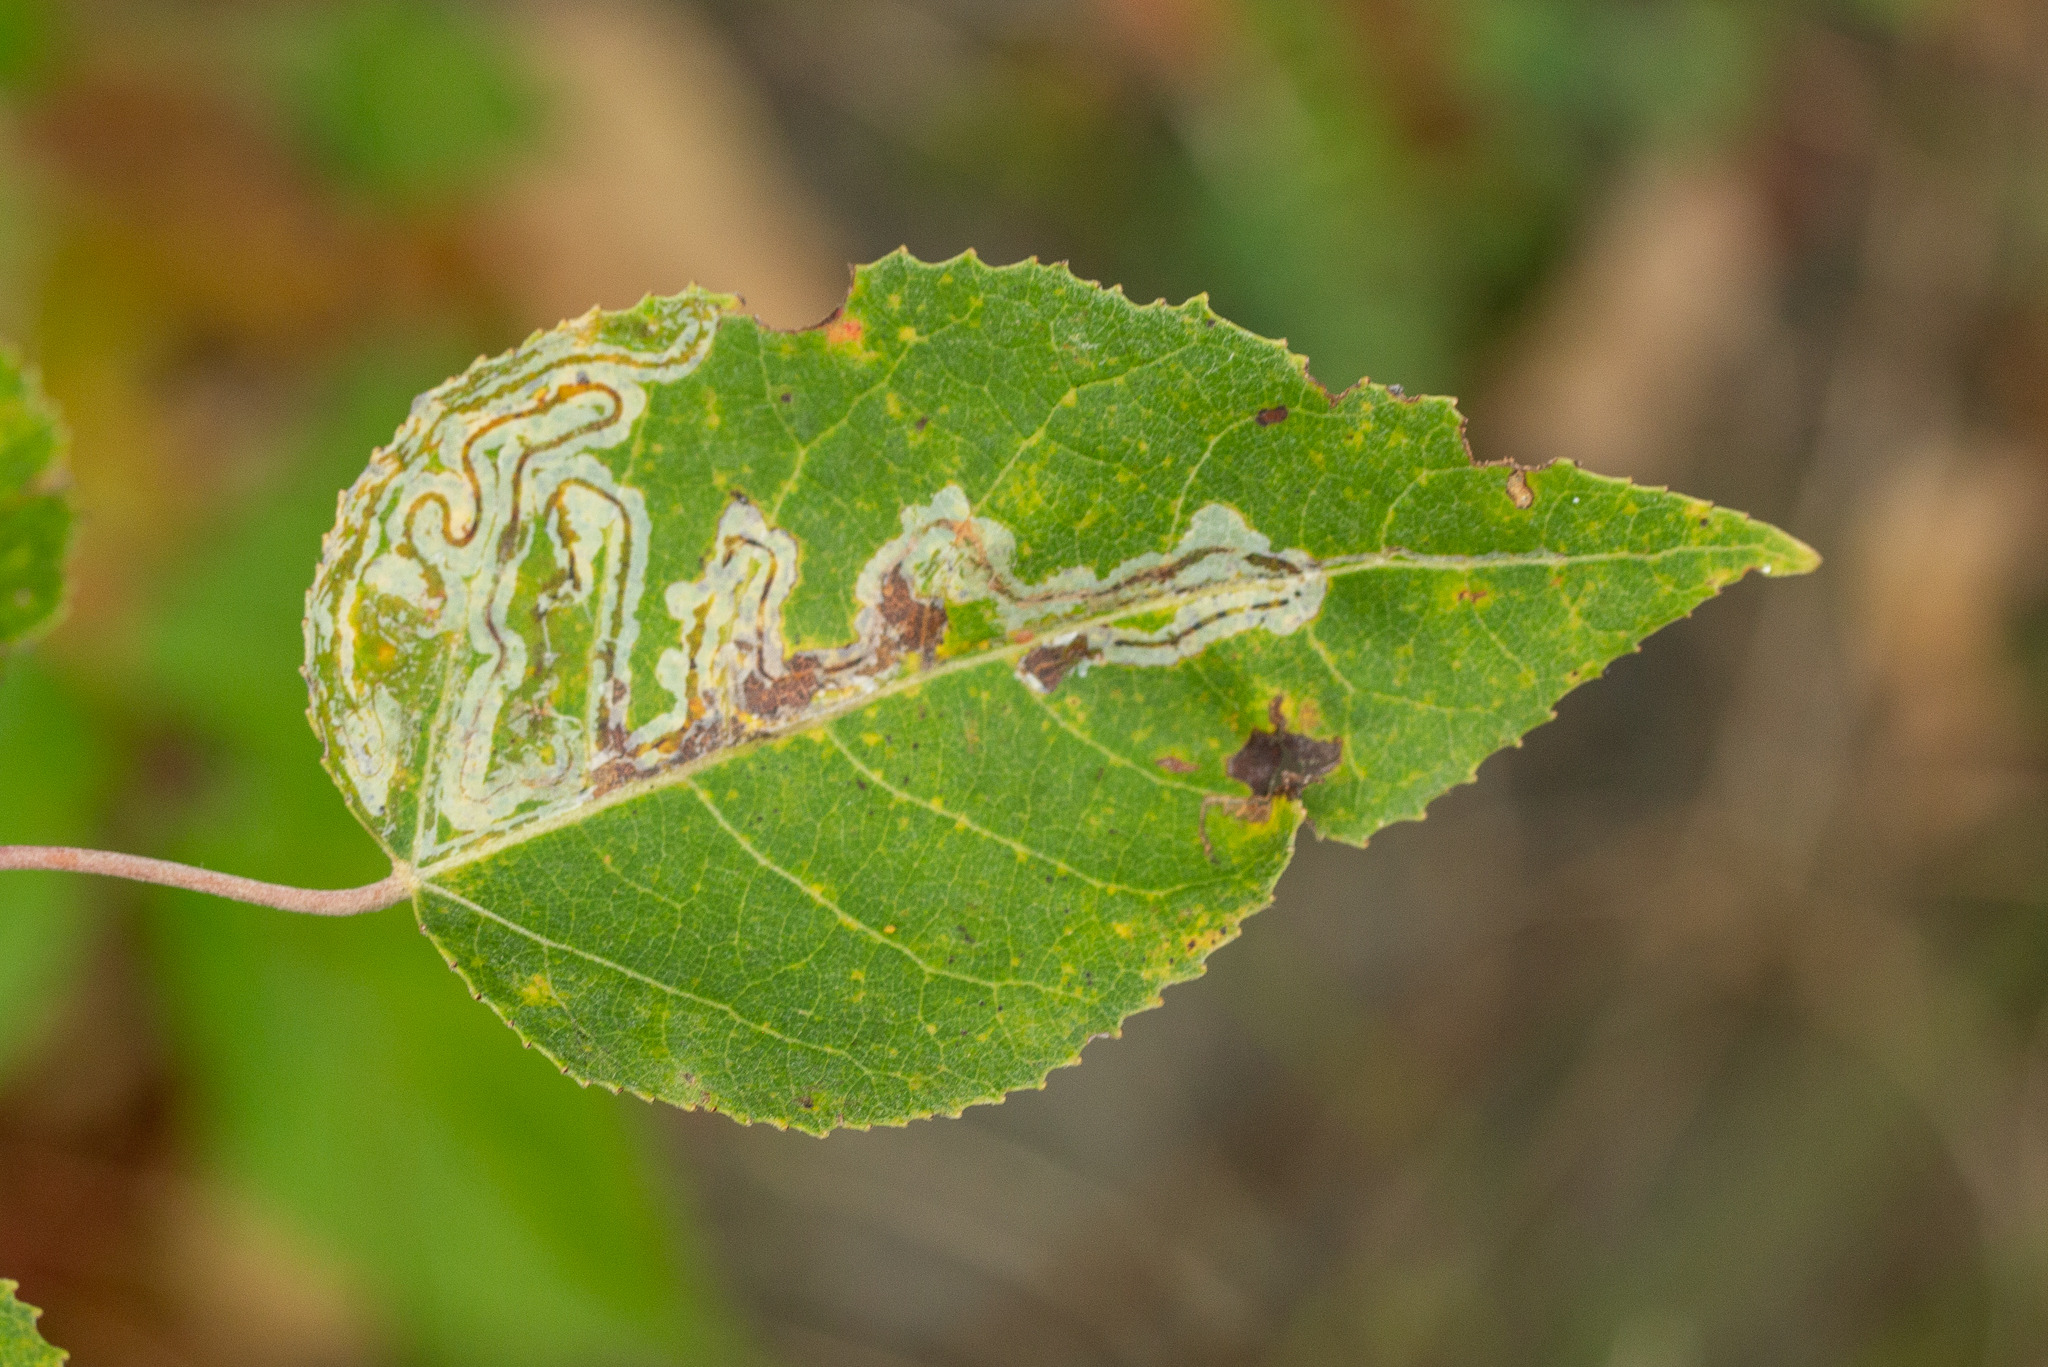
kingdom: Animalia
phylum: Arthropoda
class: Insecta
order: Lepidoptera
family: Gracillariidae
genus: Phyllocnistis
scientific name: Phyllocnistis populiella
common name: Aspen serpentine leafminer moth
